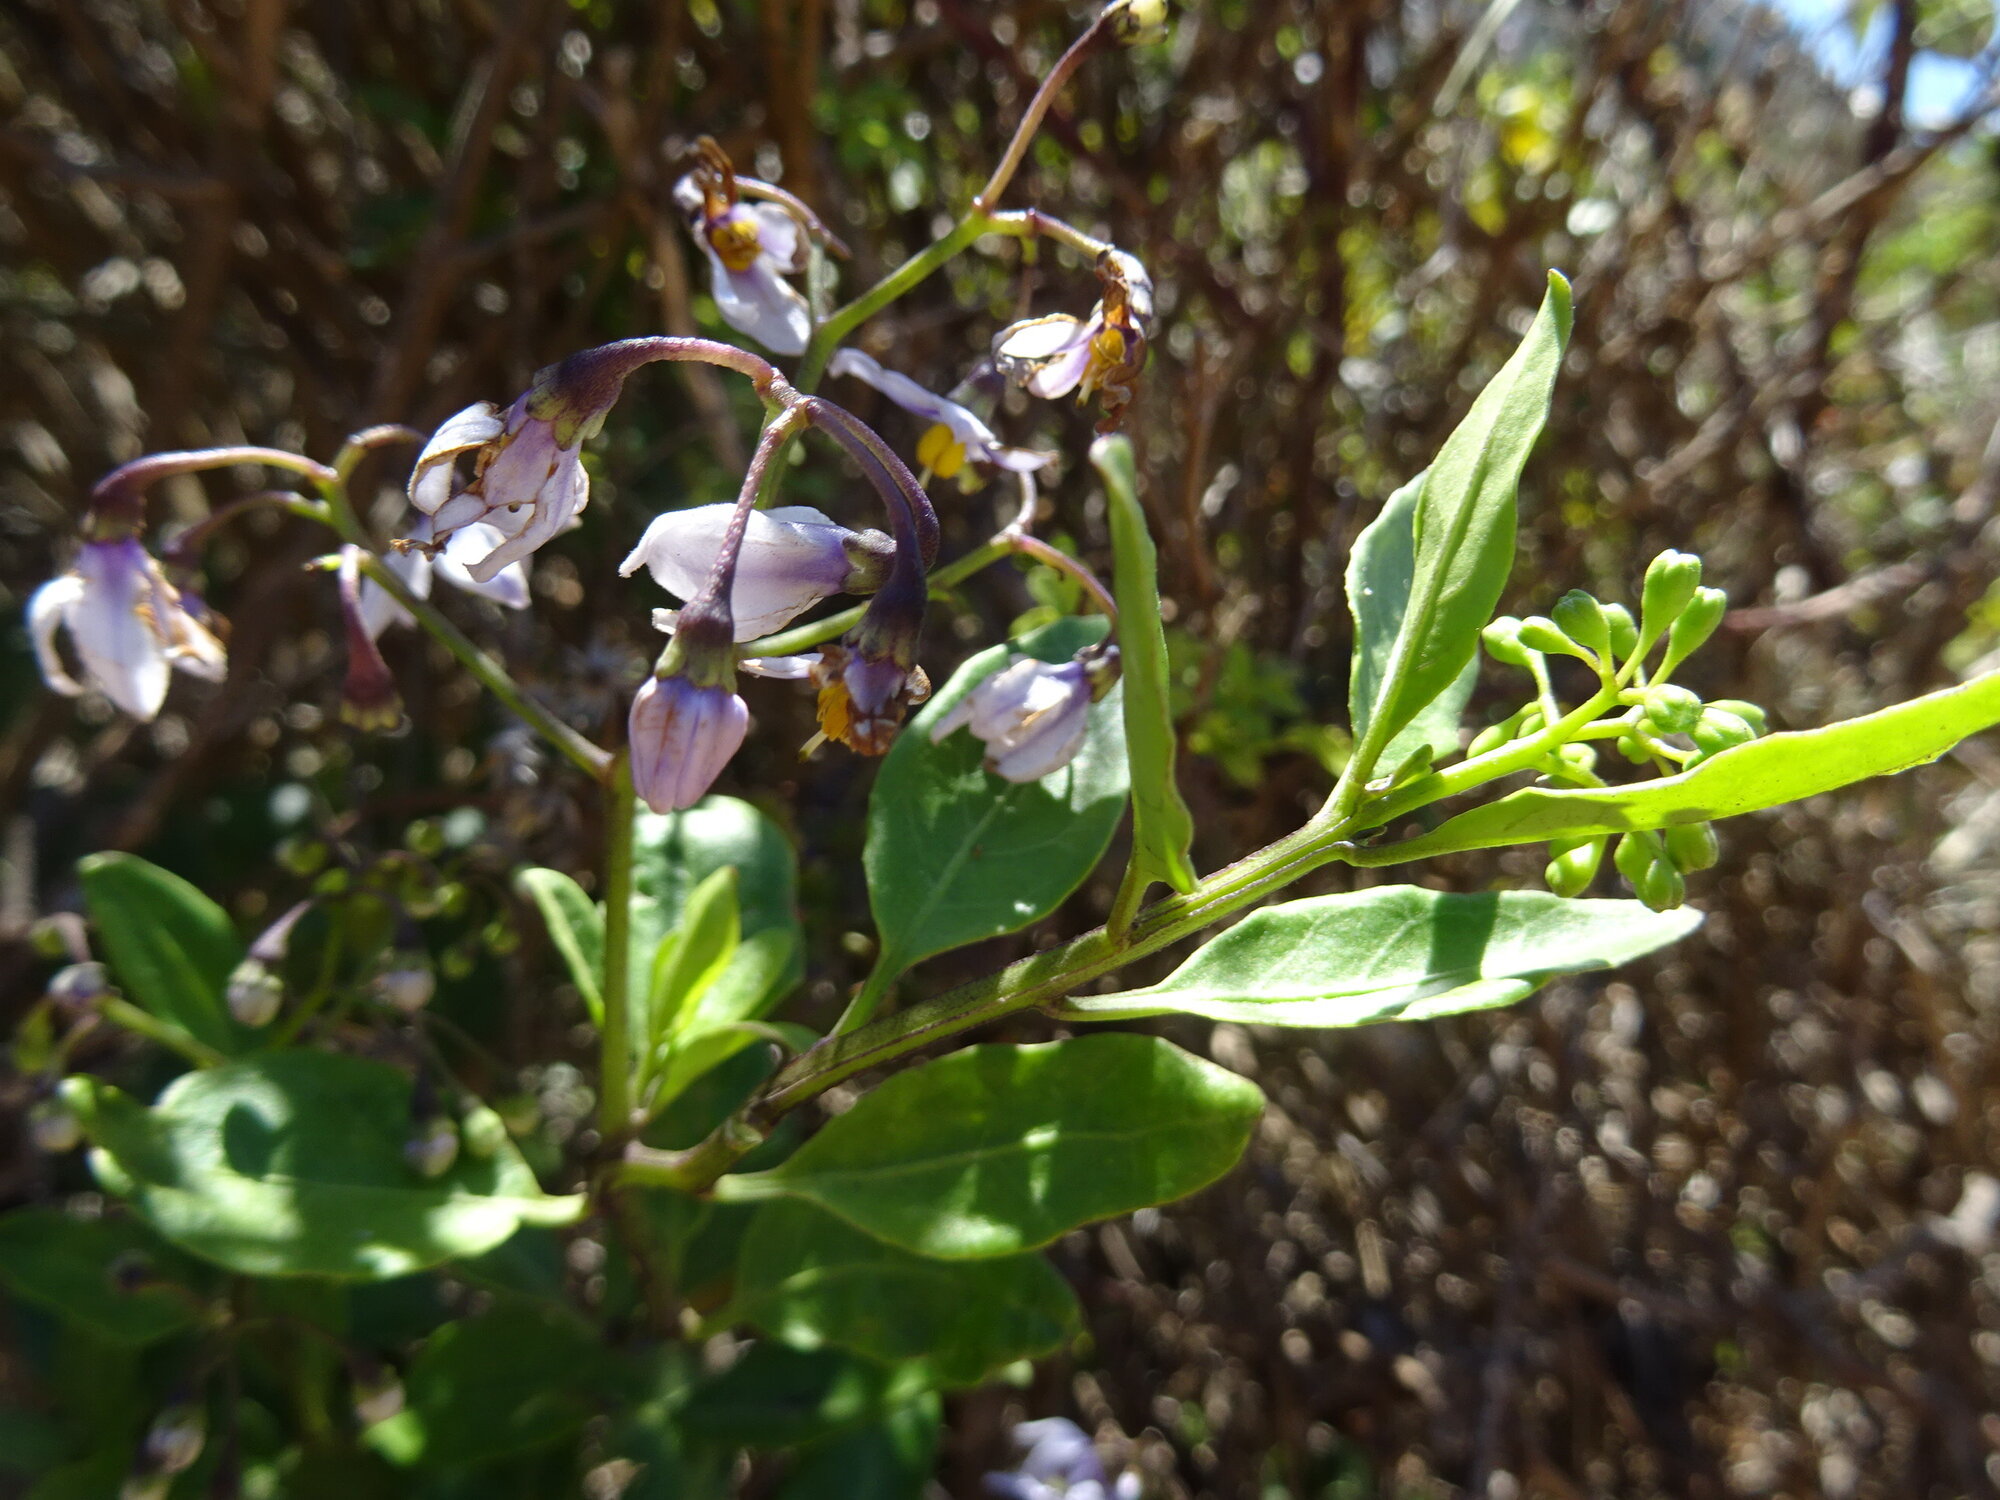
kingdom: Plantae
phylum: Tracheophyta
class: Magnoliopsida
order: Solanales
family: Solanaceae
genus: Solanum
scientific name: Solanum africanum
